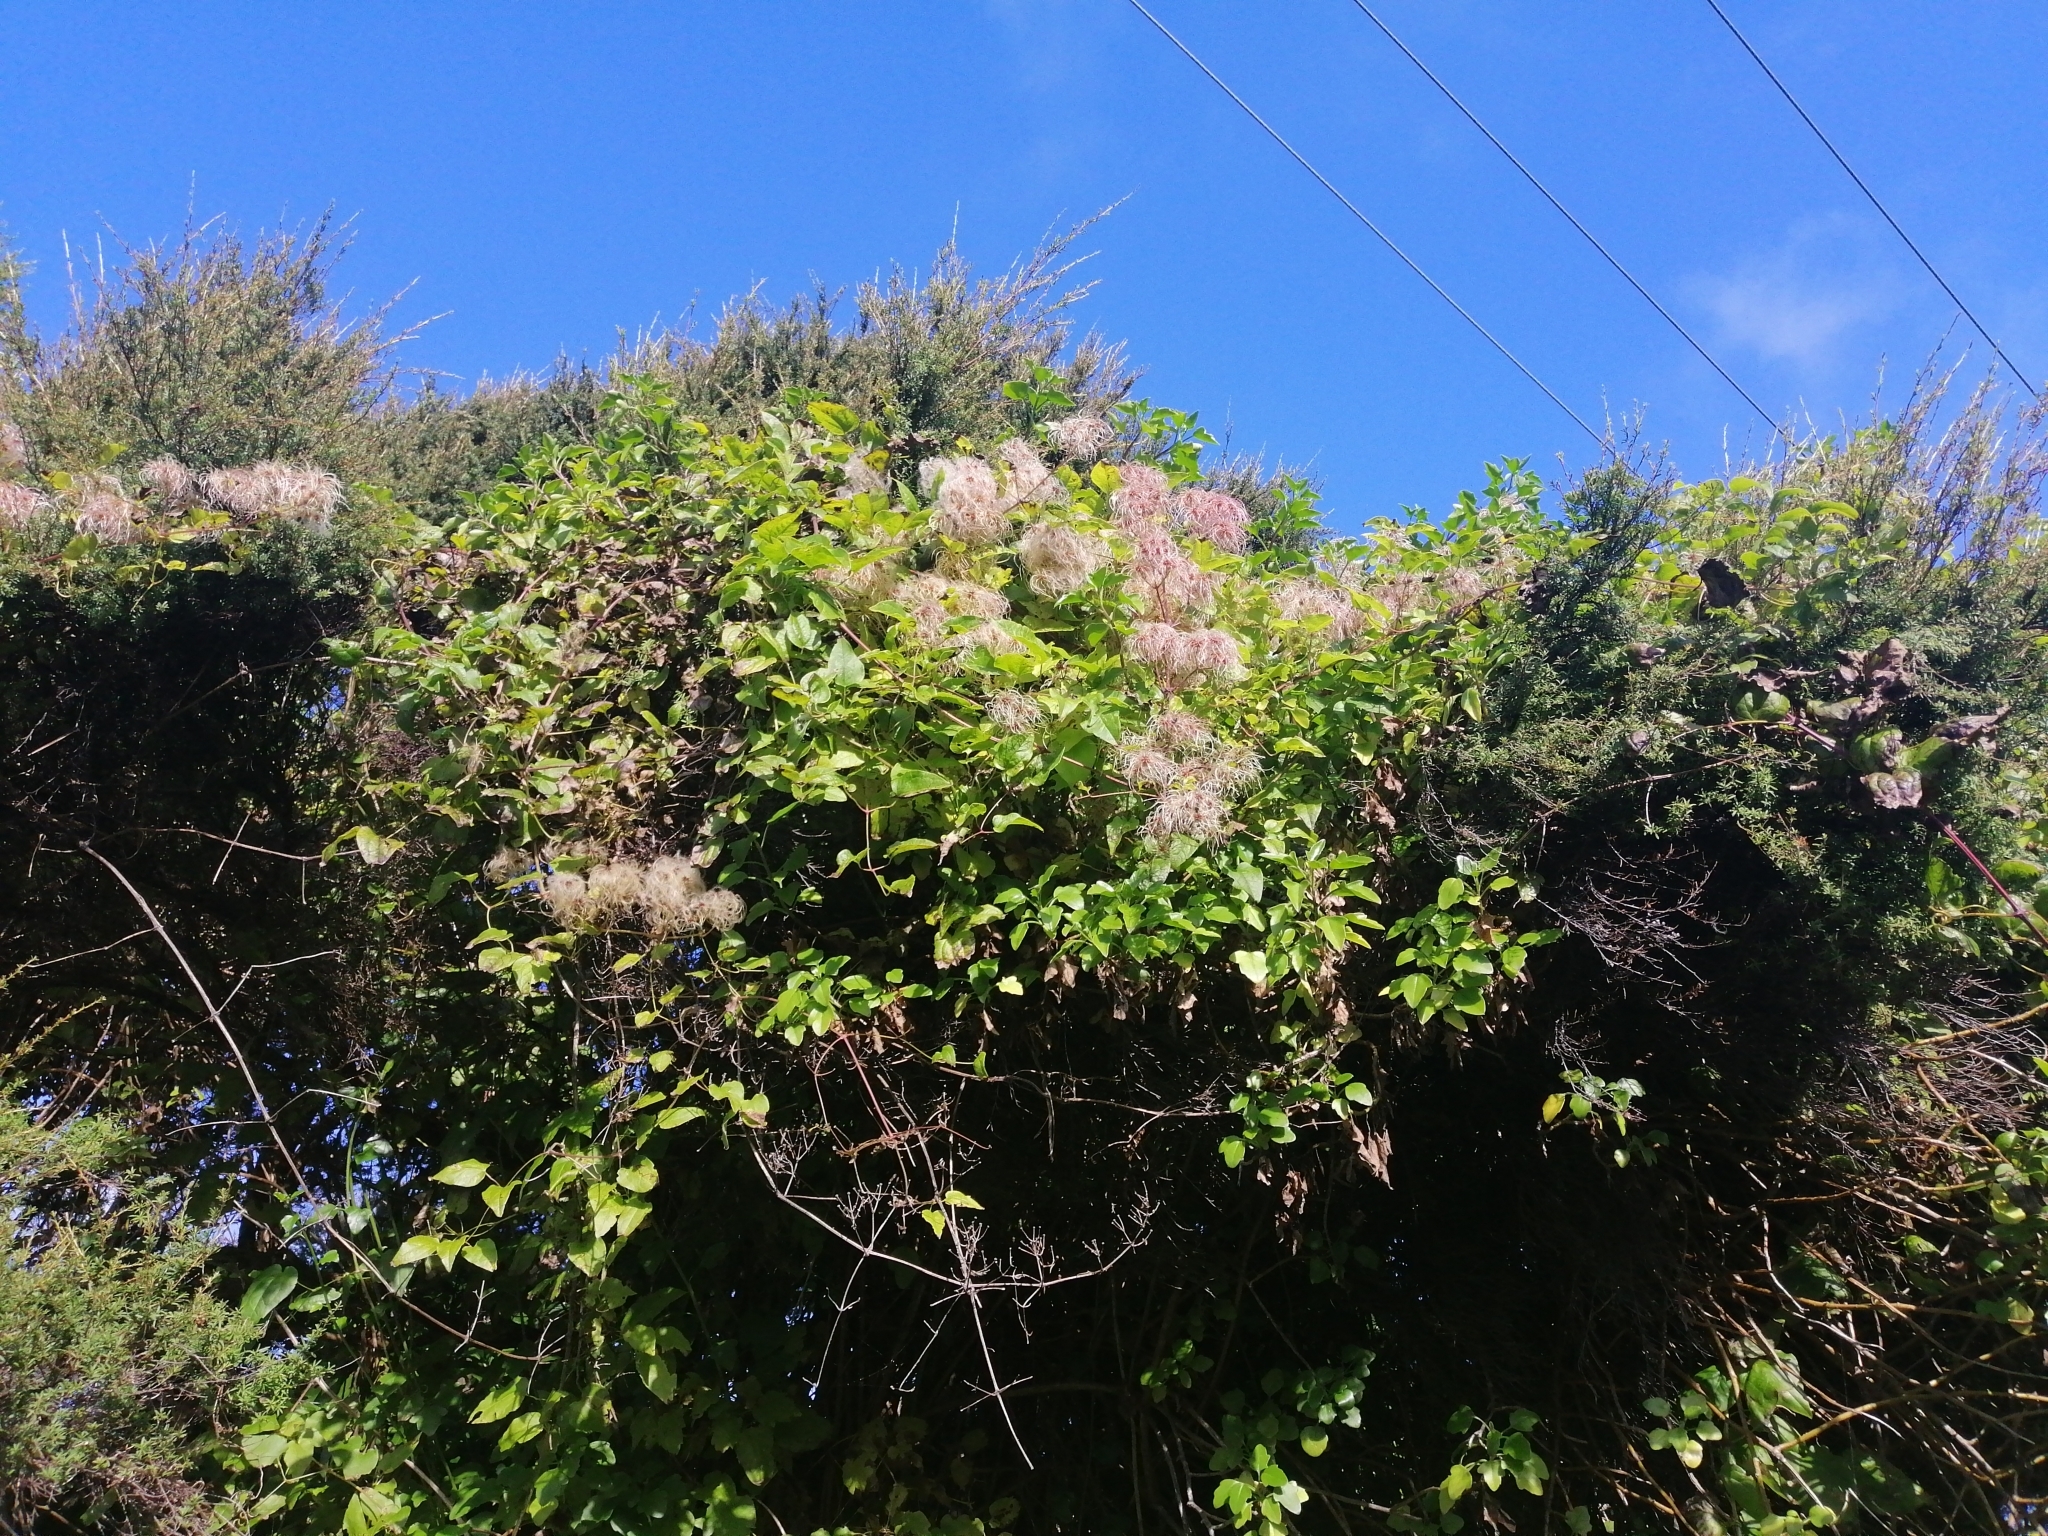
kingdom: Plantae
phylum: Tracheophyta
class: Magnoliopsida
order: Ranunculales
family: Ranunculaceae
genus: Clematis
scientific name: Clematis vitalba
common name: Evergreen clematis
